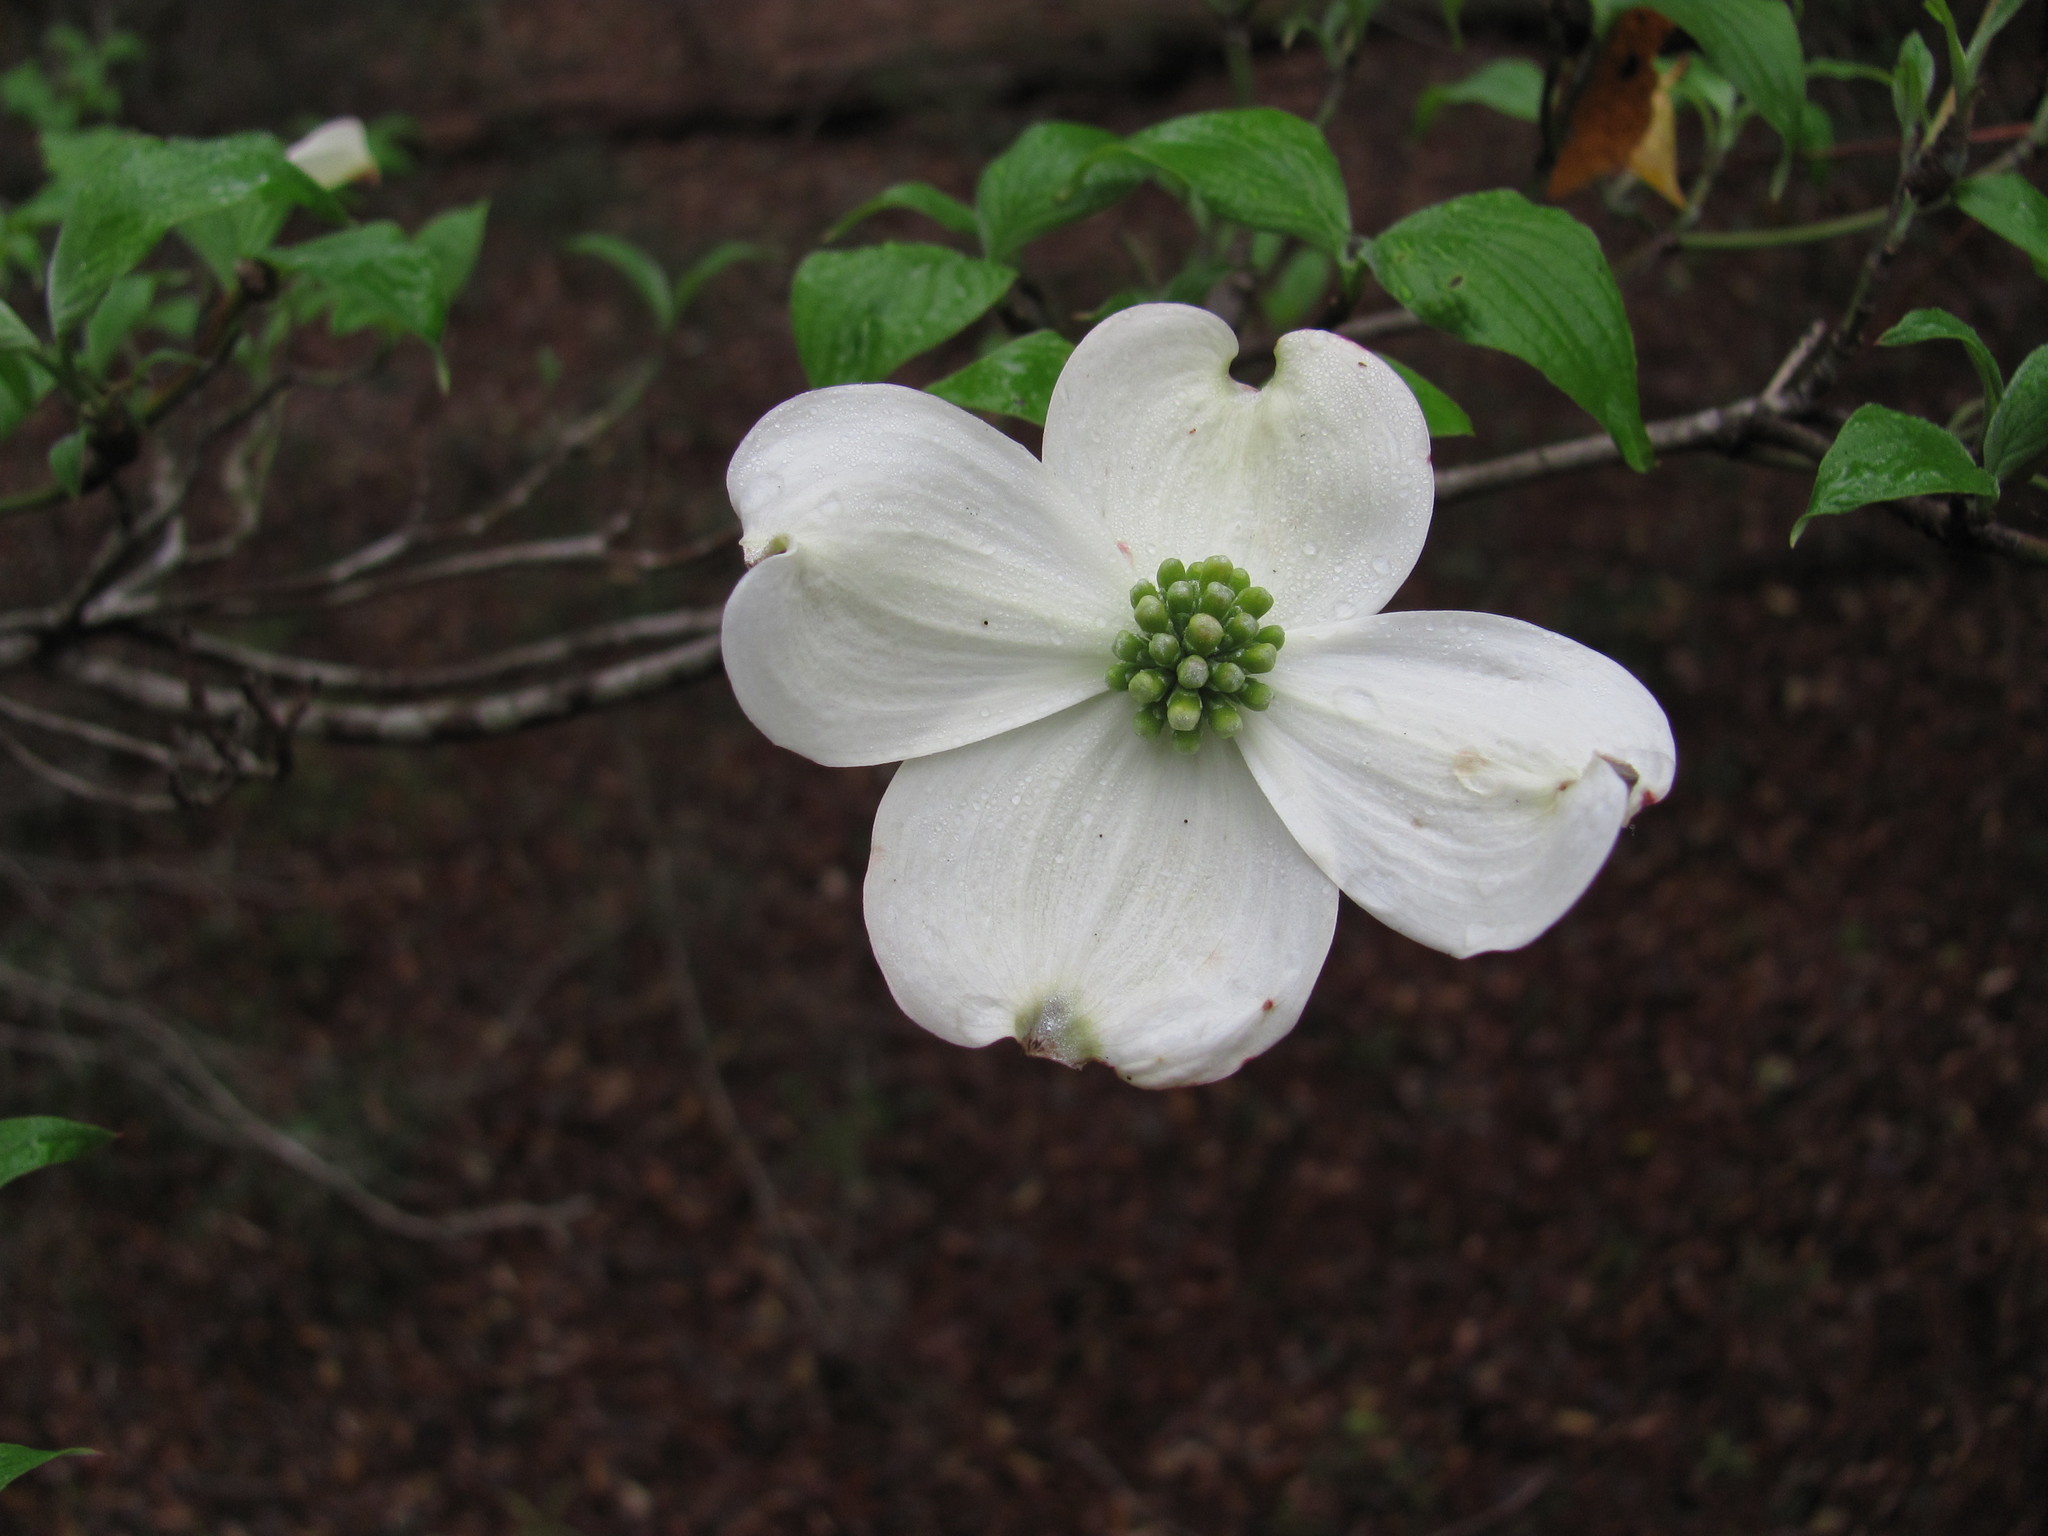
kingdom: Plantae
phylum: Tracheophyta
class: Magnoliopsida
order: Cornales
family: Cornaceae
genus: Cornus
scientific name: Cornus florida
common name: Flowering dogwood
